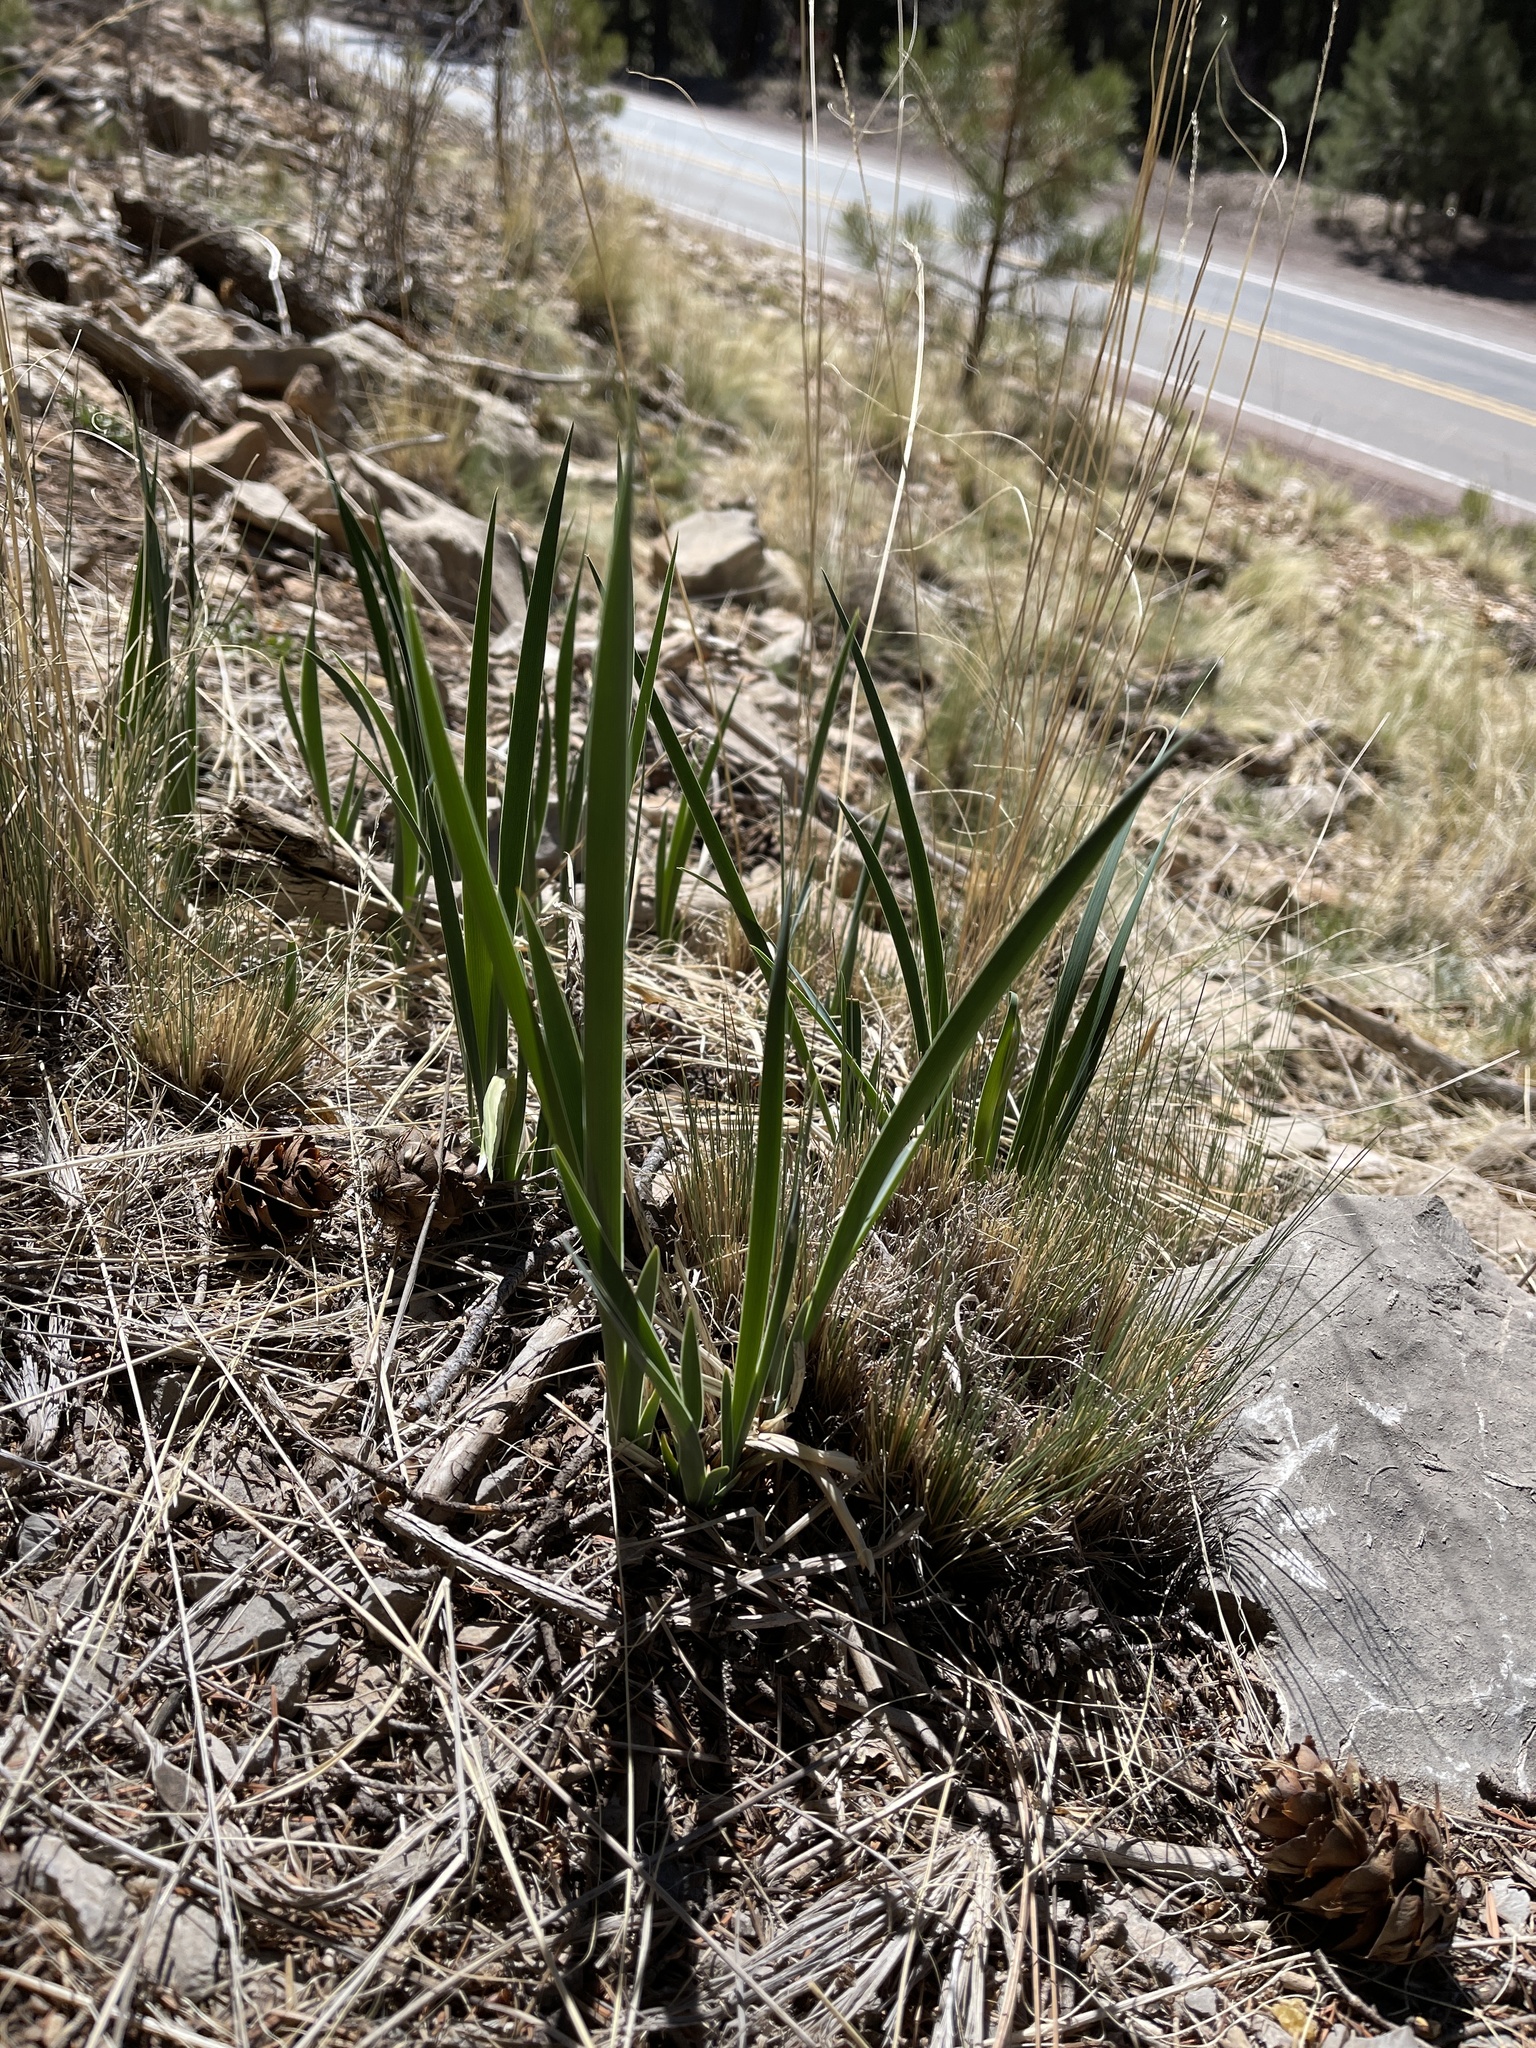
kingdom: Plantae
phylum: Tracheophyta
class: Liliopsida
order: Asparagales
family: Iridaceae
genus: Iris
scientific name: Iris missouriensis
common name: Rocky mountain iris
